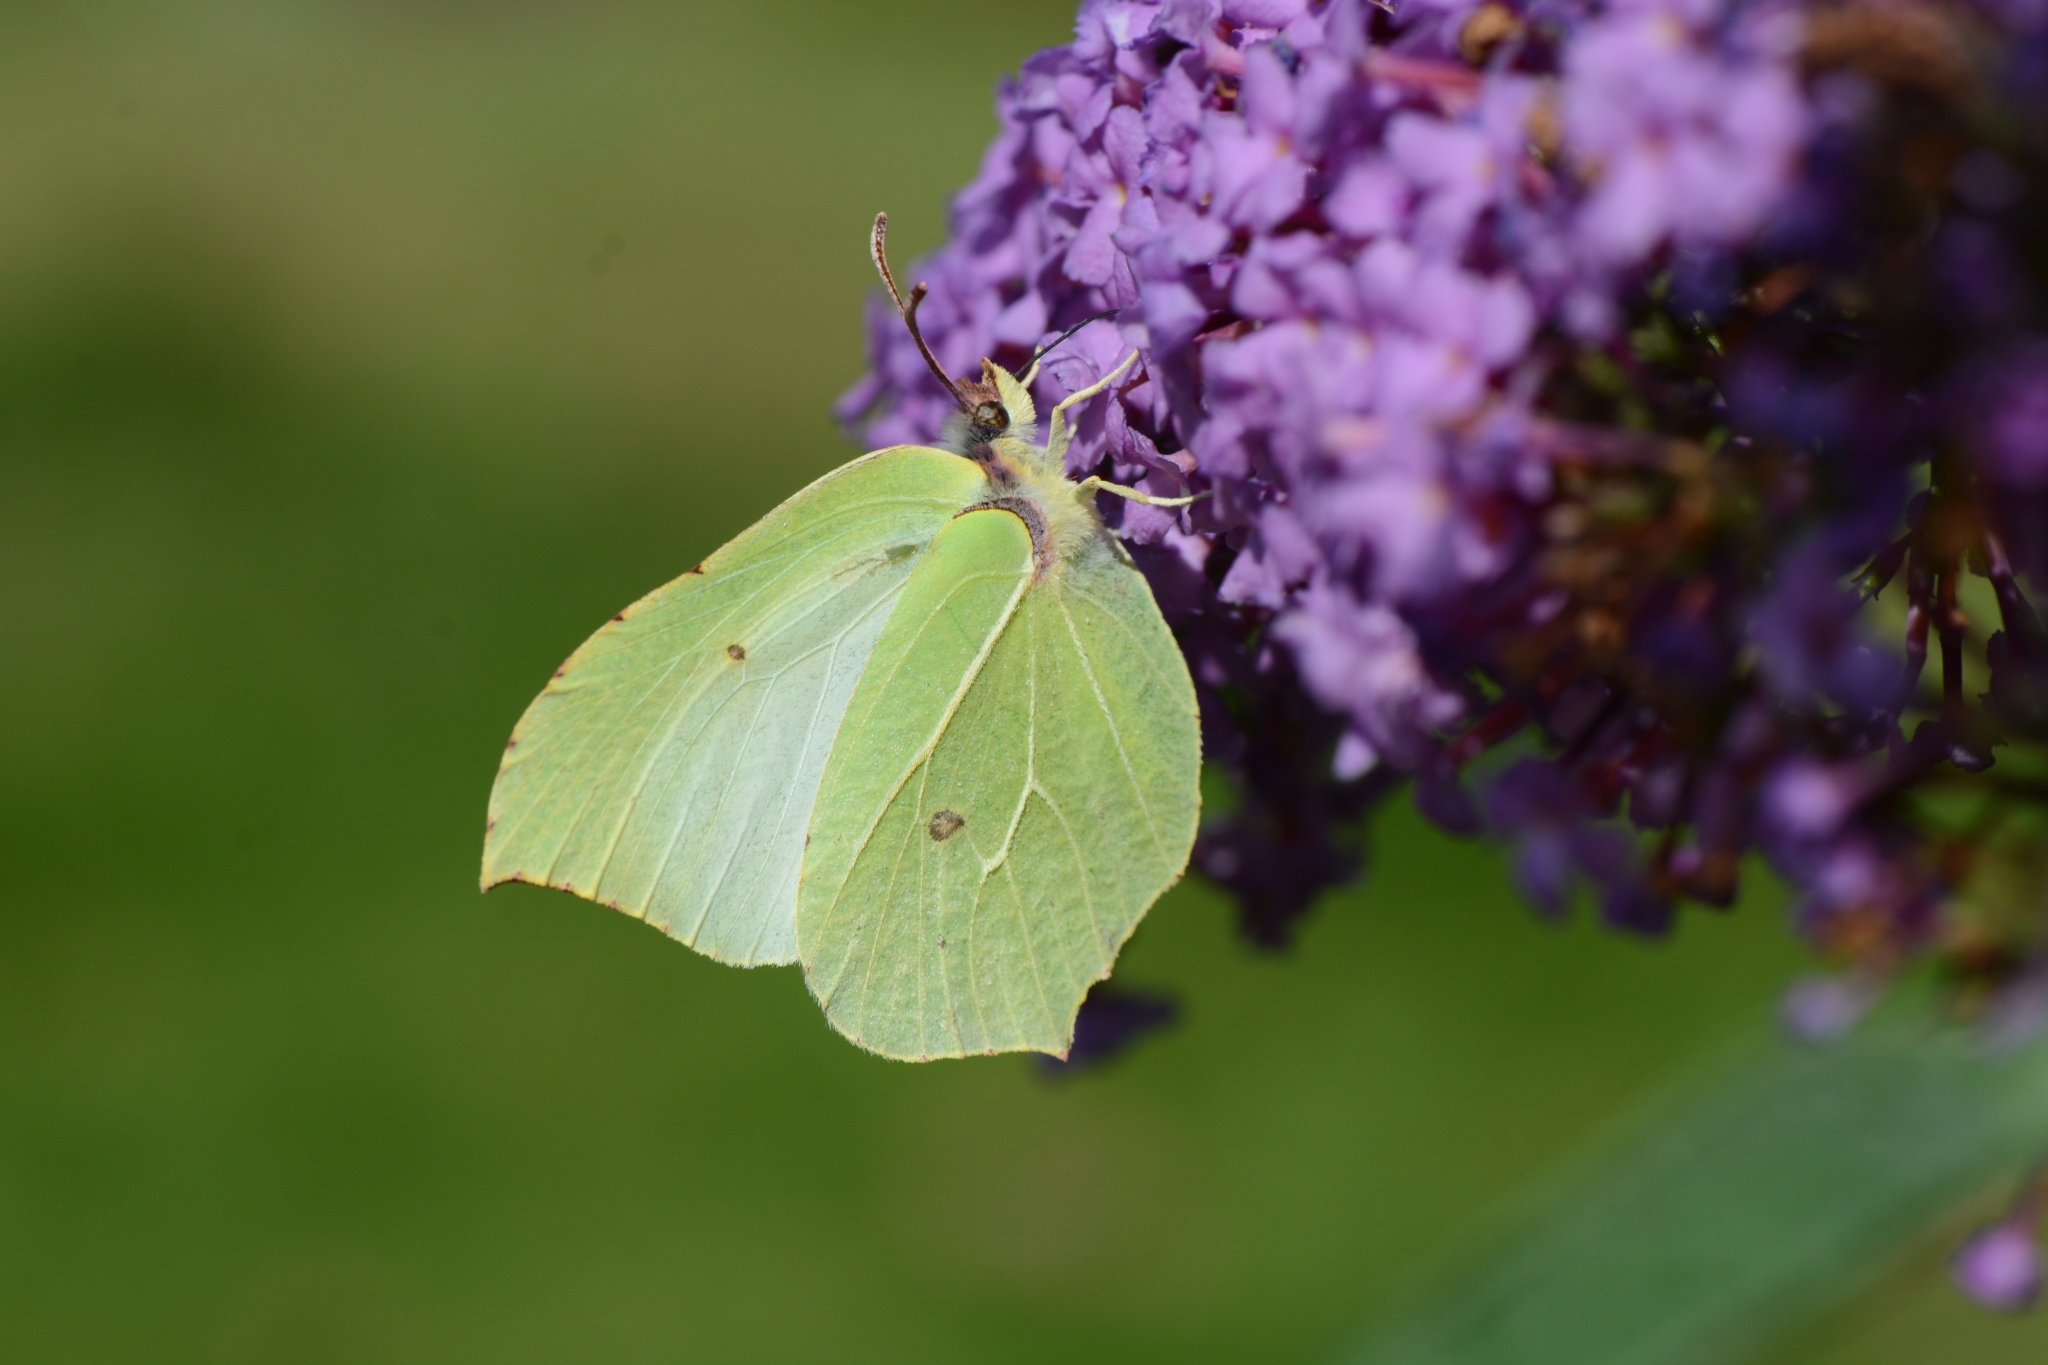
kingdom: Animalia
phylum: Arthropoda
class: Insecta
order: Lepidoptera
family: Pieridae
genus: Gonepteryx
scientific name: Gonepteryx rhamni
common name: Brimstone
